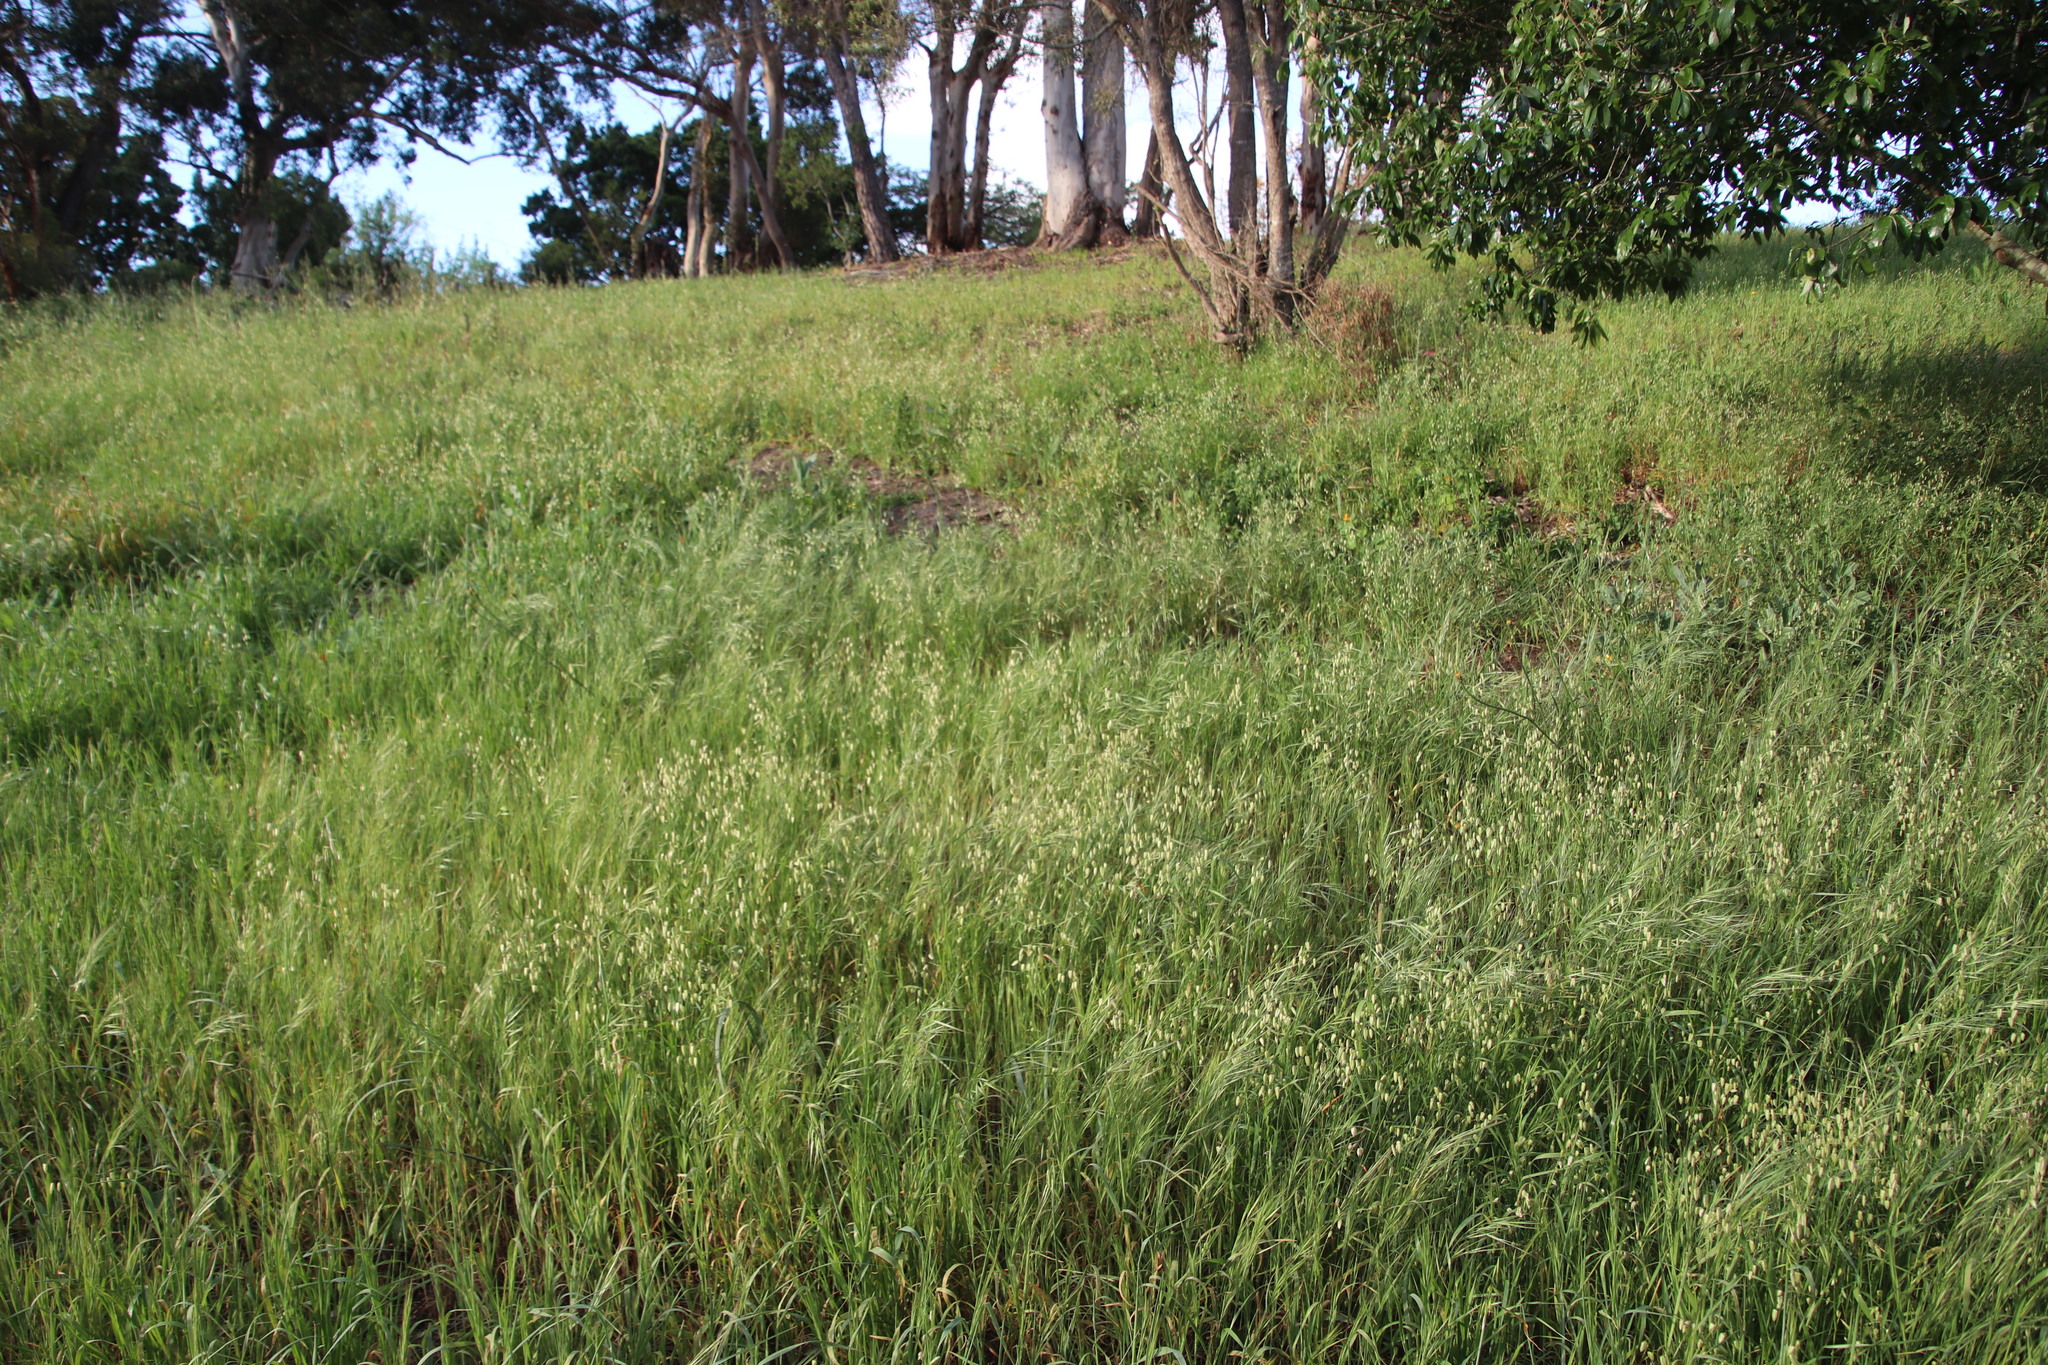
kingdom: Plantae
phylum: Tracheophyta
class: Liliopsida
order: Poales
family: Poaceae
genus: Briza
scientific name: Briza maxima
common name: Big quakinggrass
